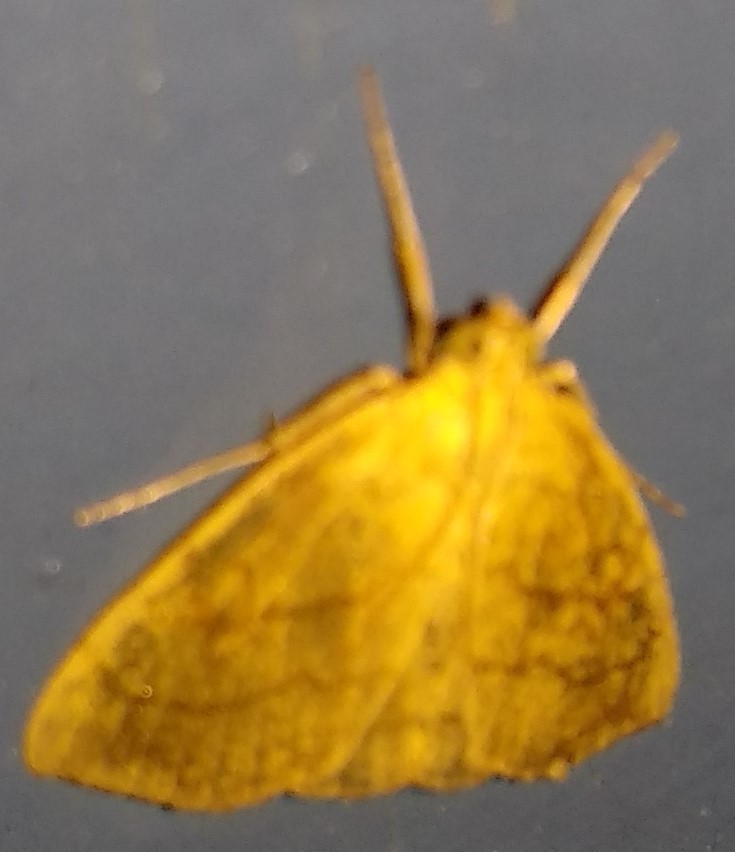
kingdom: Animalia
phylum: Arthropoda
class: Insecta
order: Lepidoptera
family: Crambidae
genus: Evergestis
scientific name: Evergestis pallidata
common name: Chequered pearl
